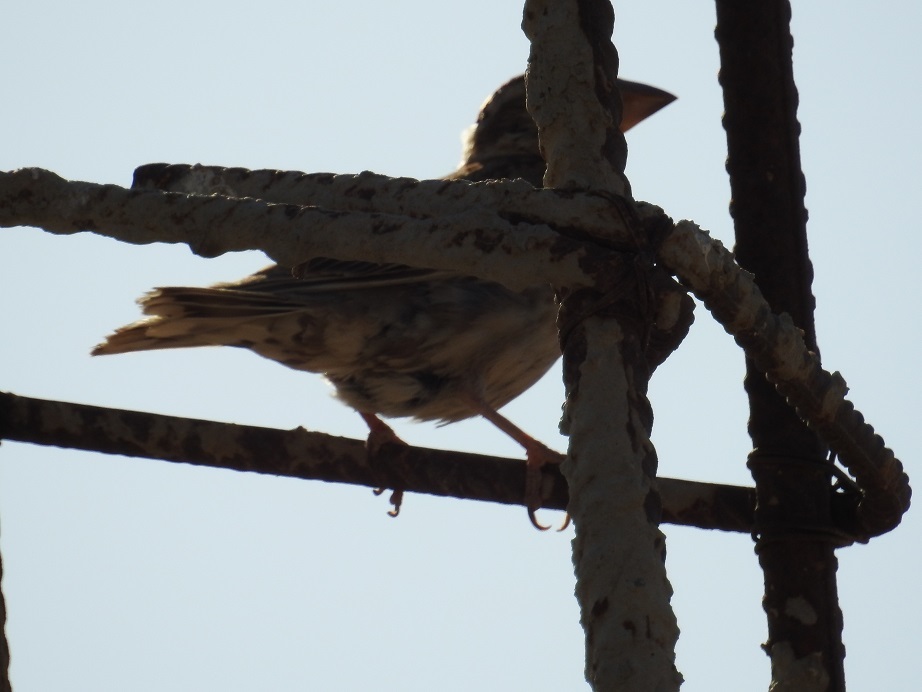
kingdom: Animalia
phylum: Chordata
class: Aves
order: Passeriformes
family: Passeridae
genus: Petronia
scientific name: Petronia petronia
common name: Rock sparrow
